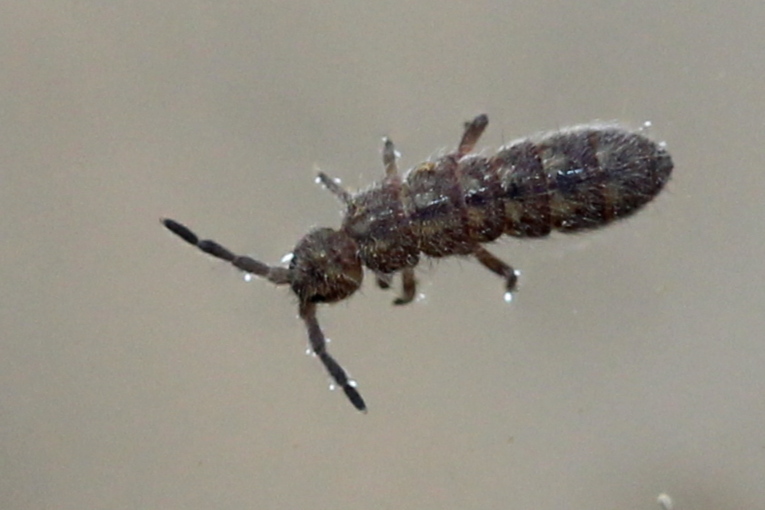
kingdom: Animalia
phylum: Arthropoda
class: Collembola
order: Entomobryomorpha
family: Isotomidae
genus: Isotoma
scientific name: Isotoma delta
